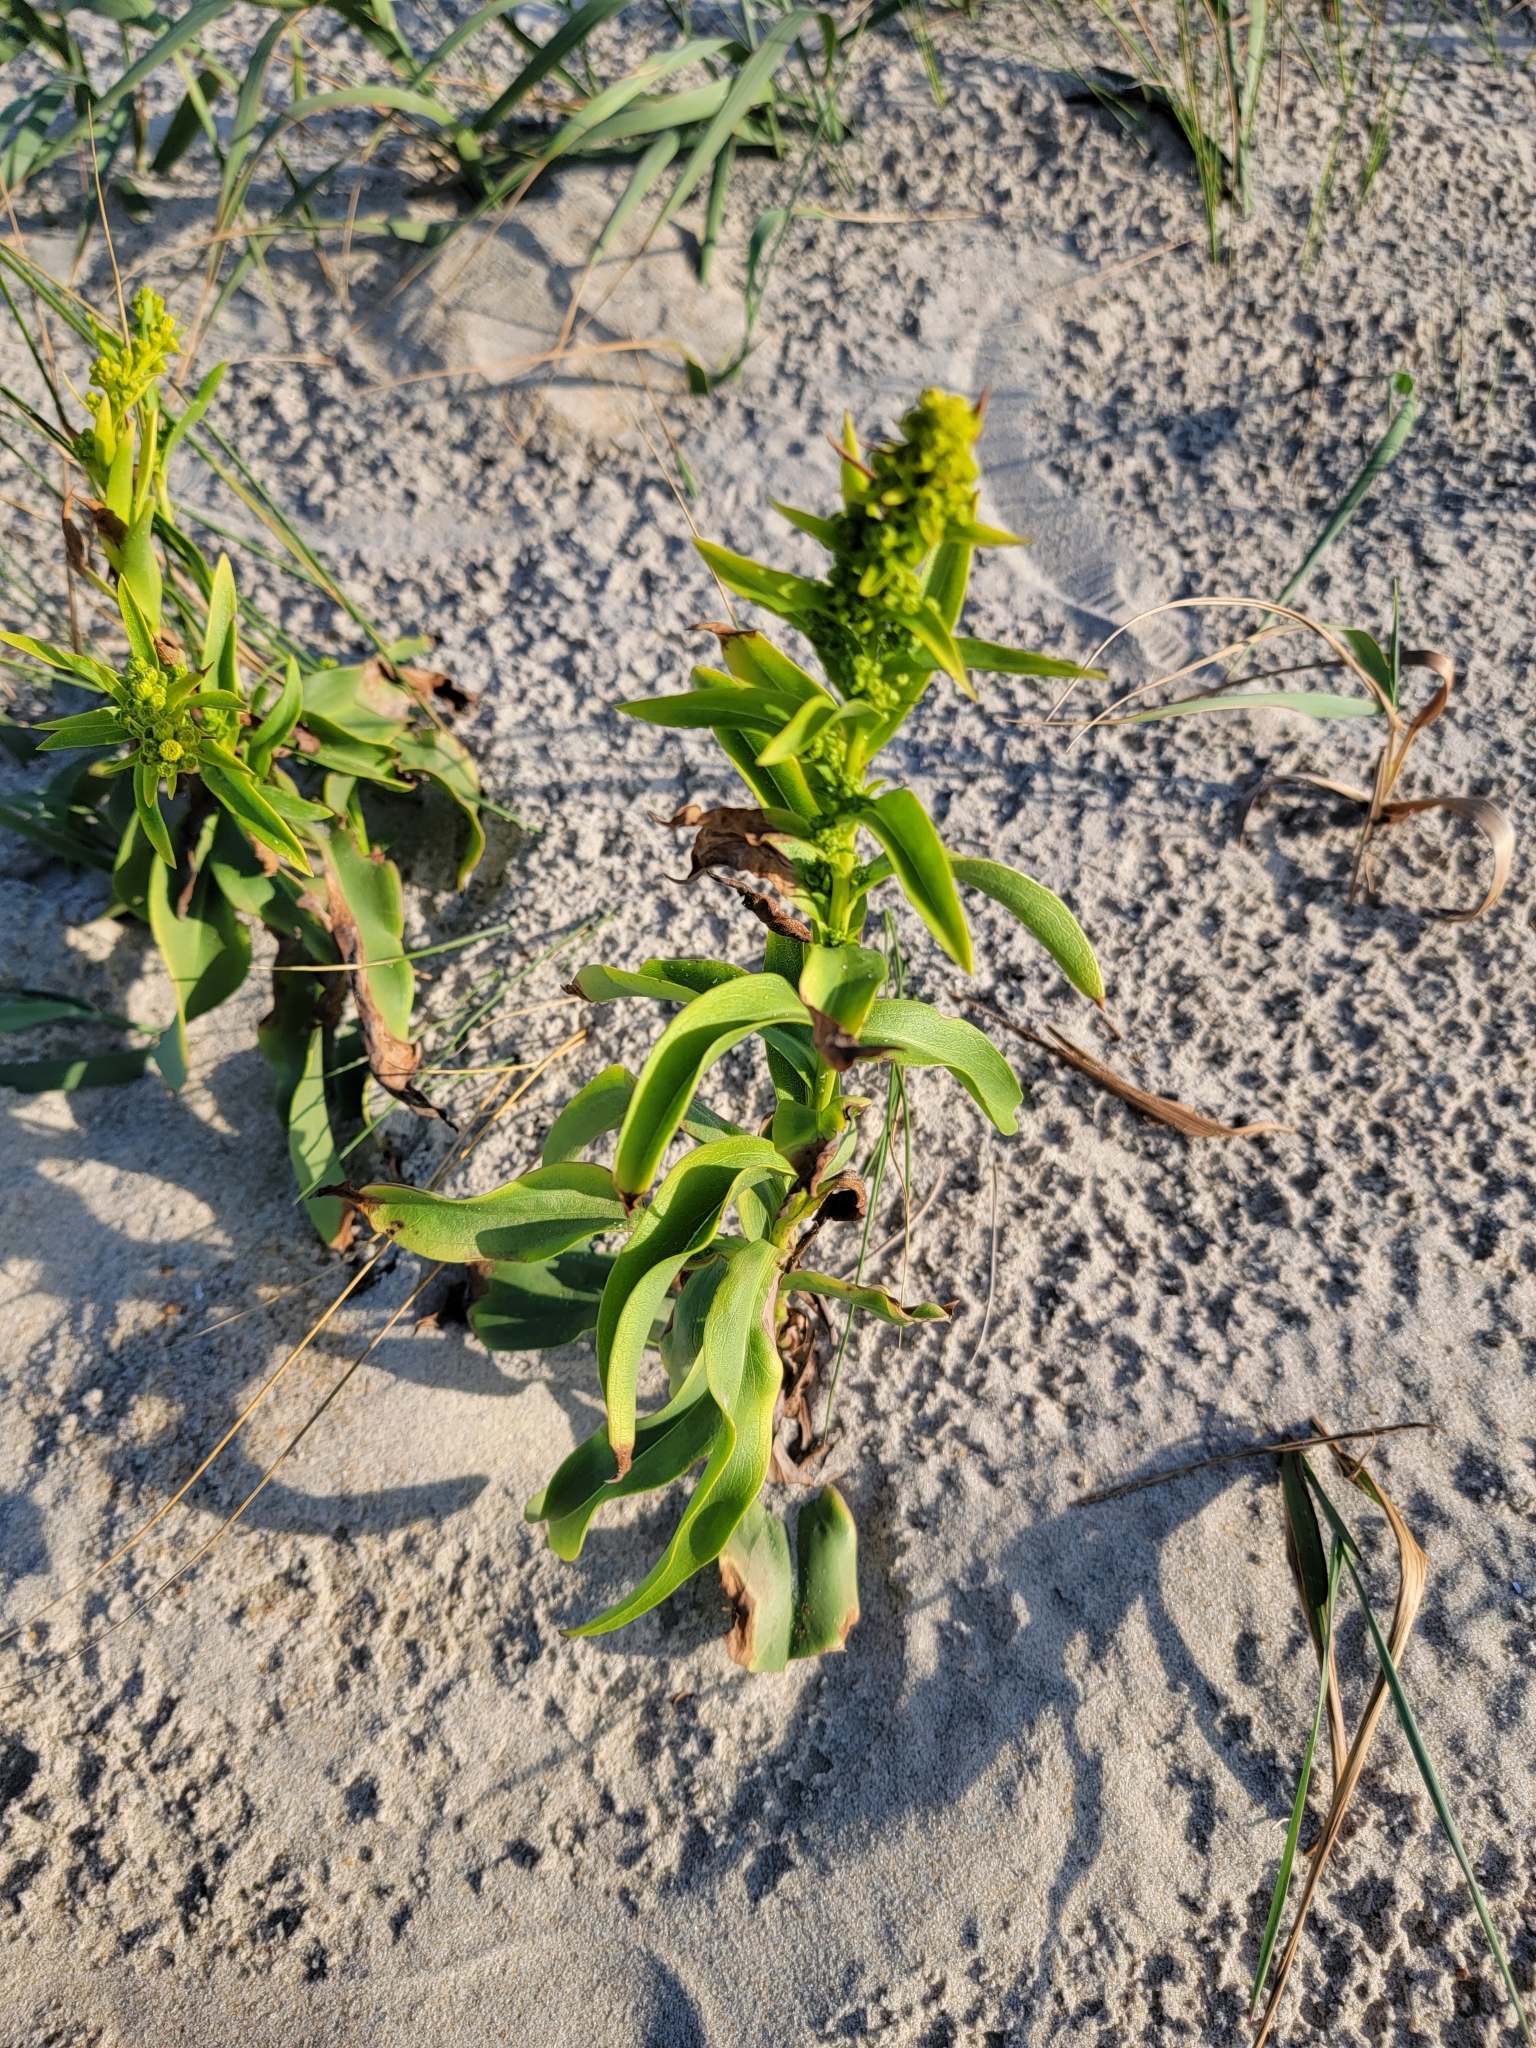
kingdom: Plantae
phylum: Tracheophyta
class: Magnoliopsida
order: Asterales
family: Asteraceae
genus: Solidago
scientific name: Solidago sempervirens
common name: Salt-marsh goldenrod
